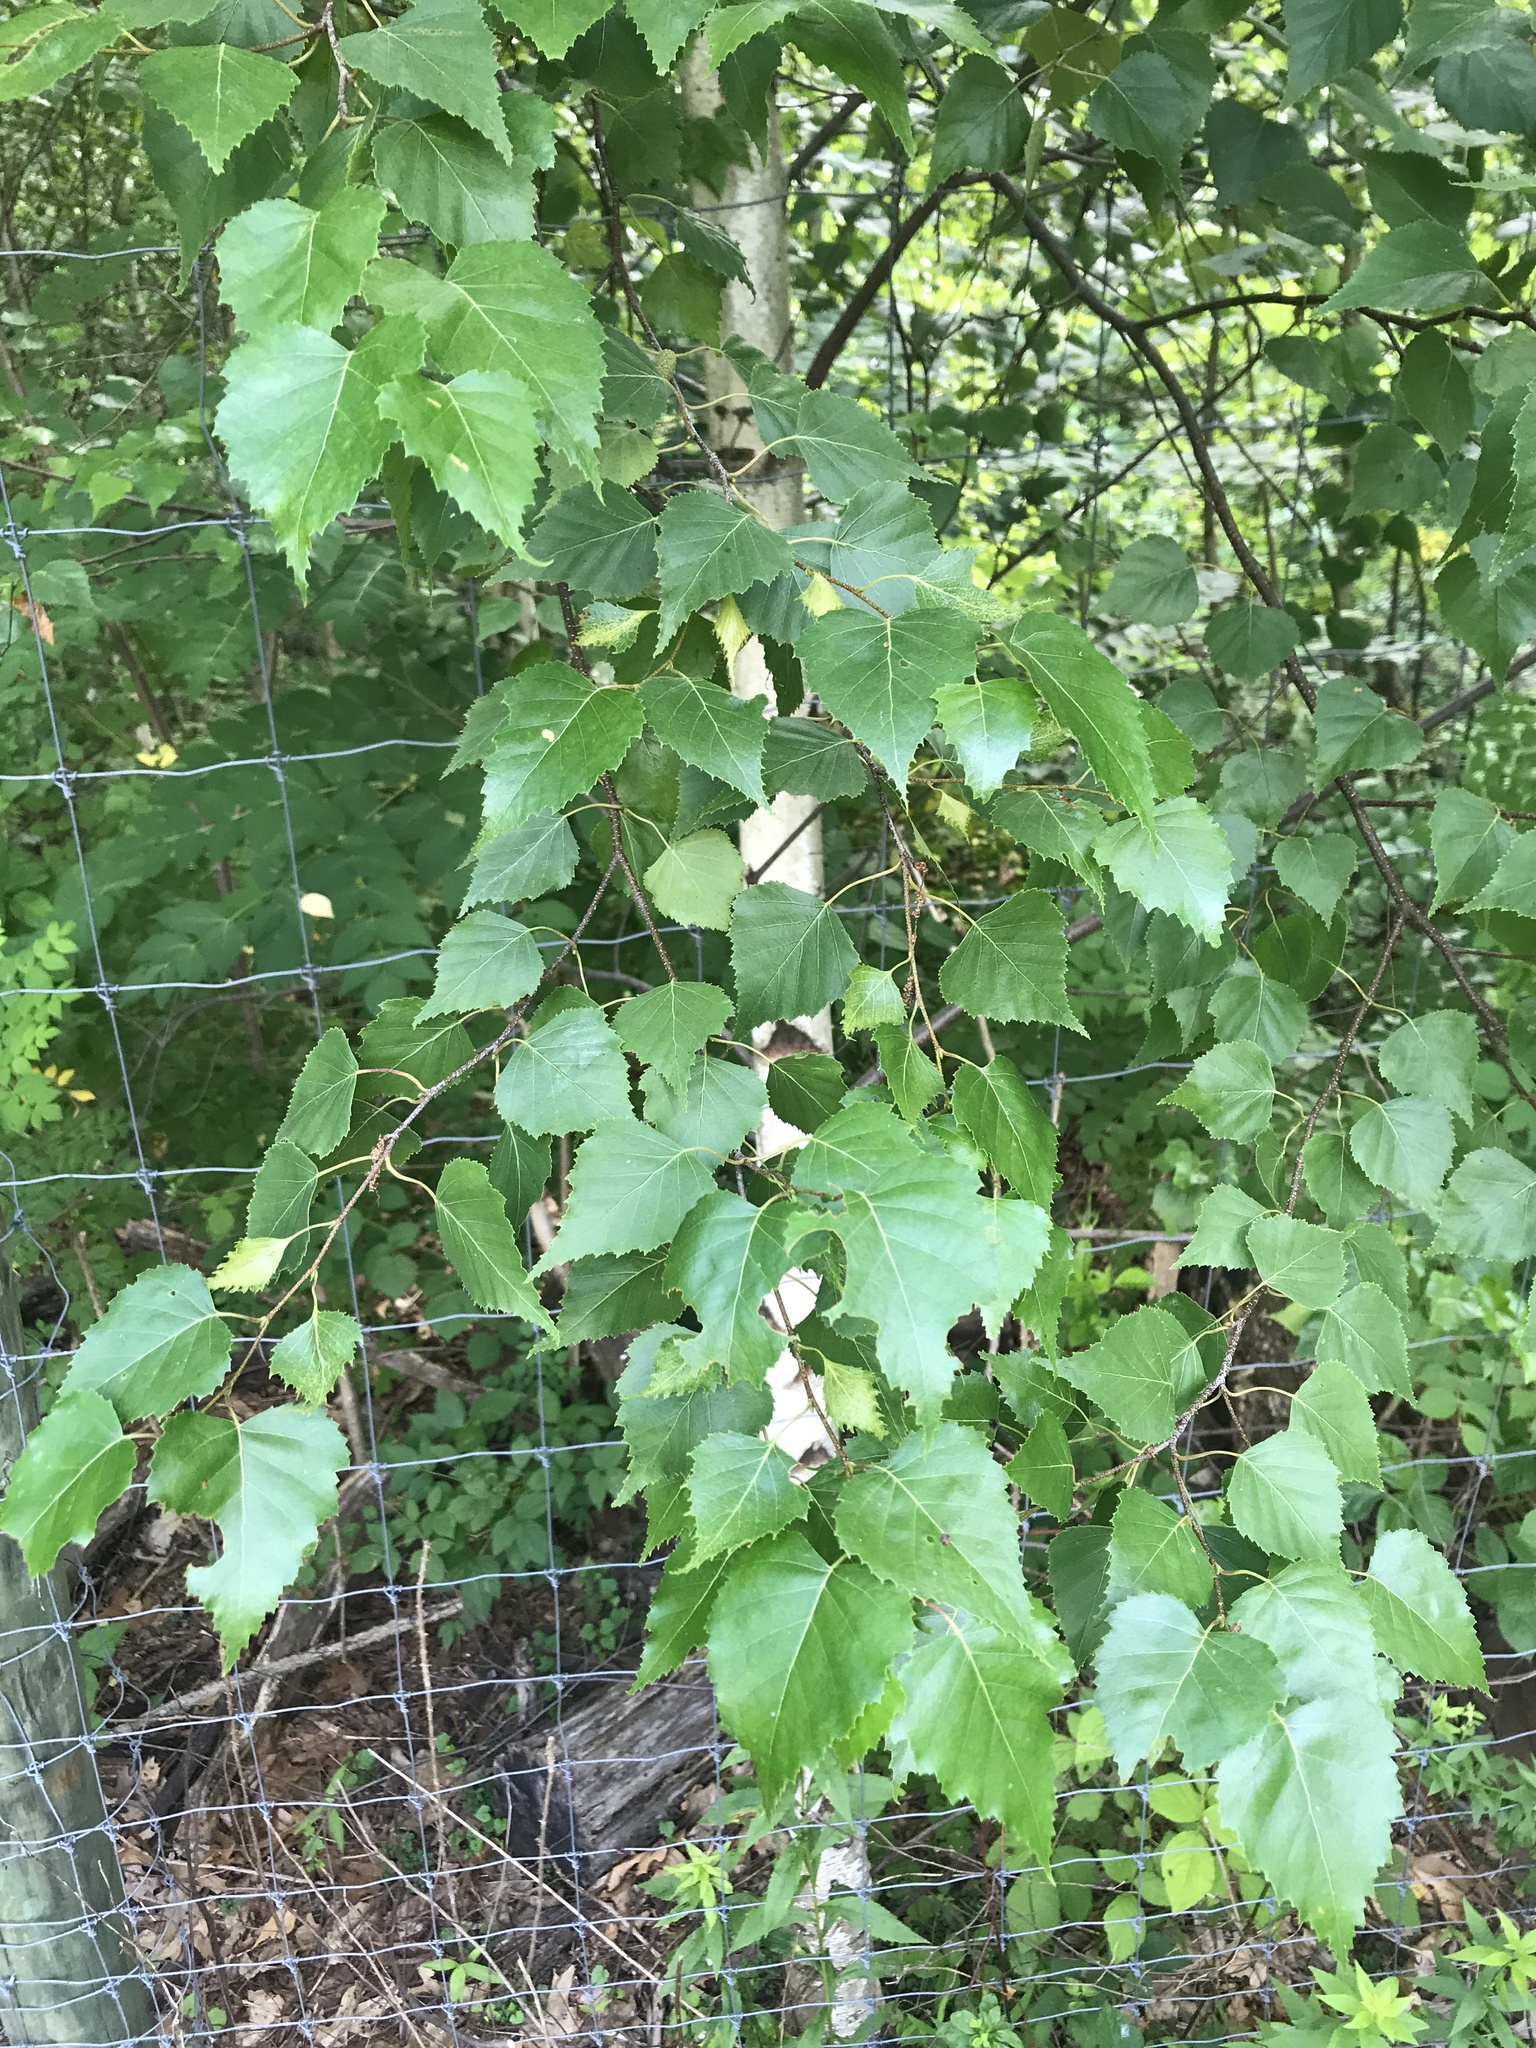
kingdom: Plantae
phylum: Tracheophyta
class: Magnoliopsida
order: Fagales
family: Betulaceae
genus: Betula
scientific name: Betula populifolia
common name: Fire birch
